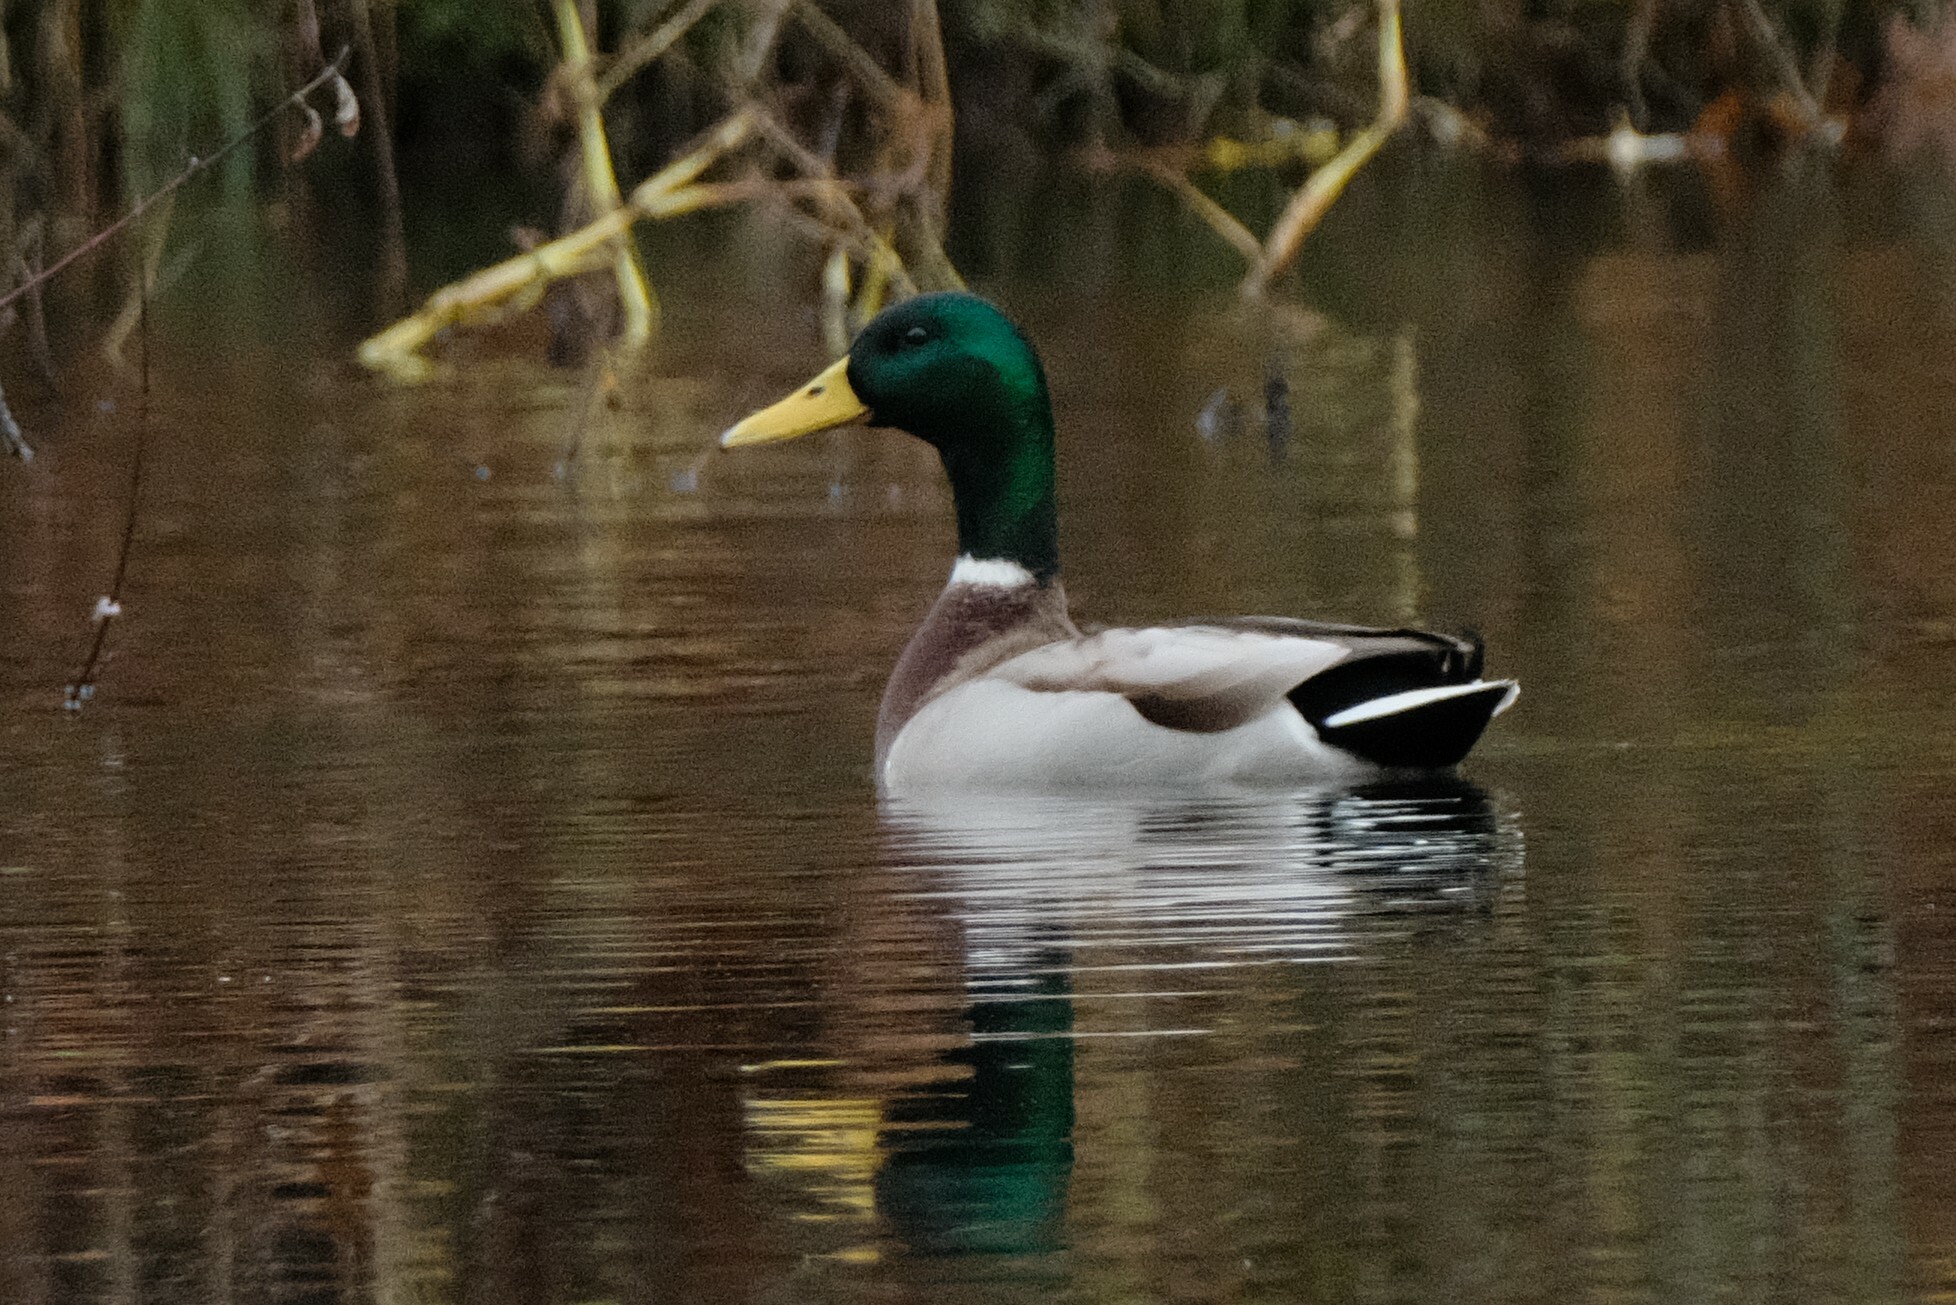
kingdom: Animalia
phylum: Chordata
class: Aves
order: Anseriformes
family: Anatidae
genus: Anas
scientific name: Anas platyrhynchos
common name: Mallard
